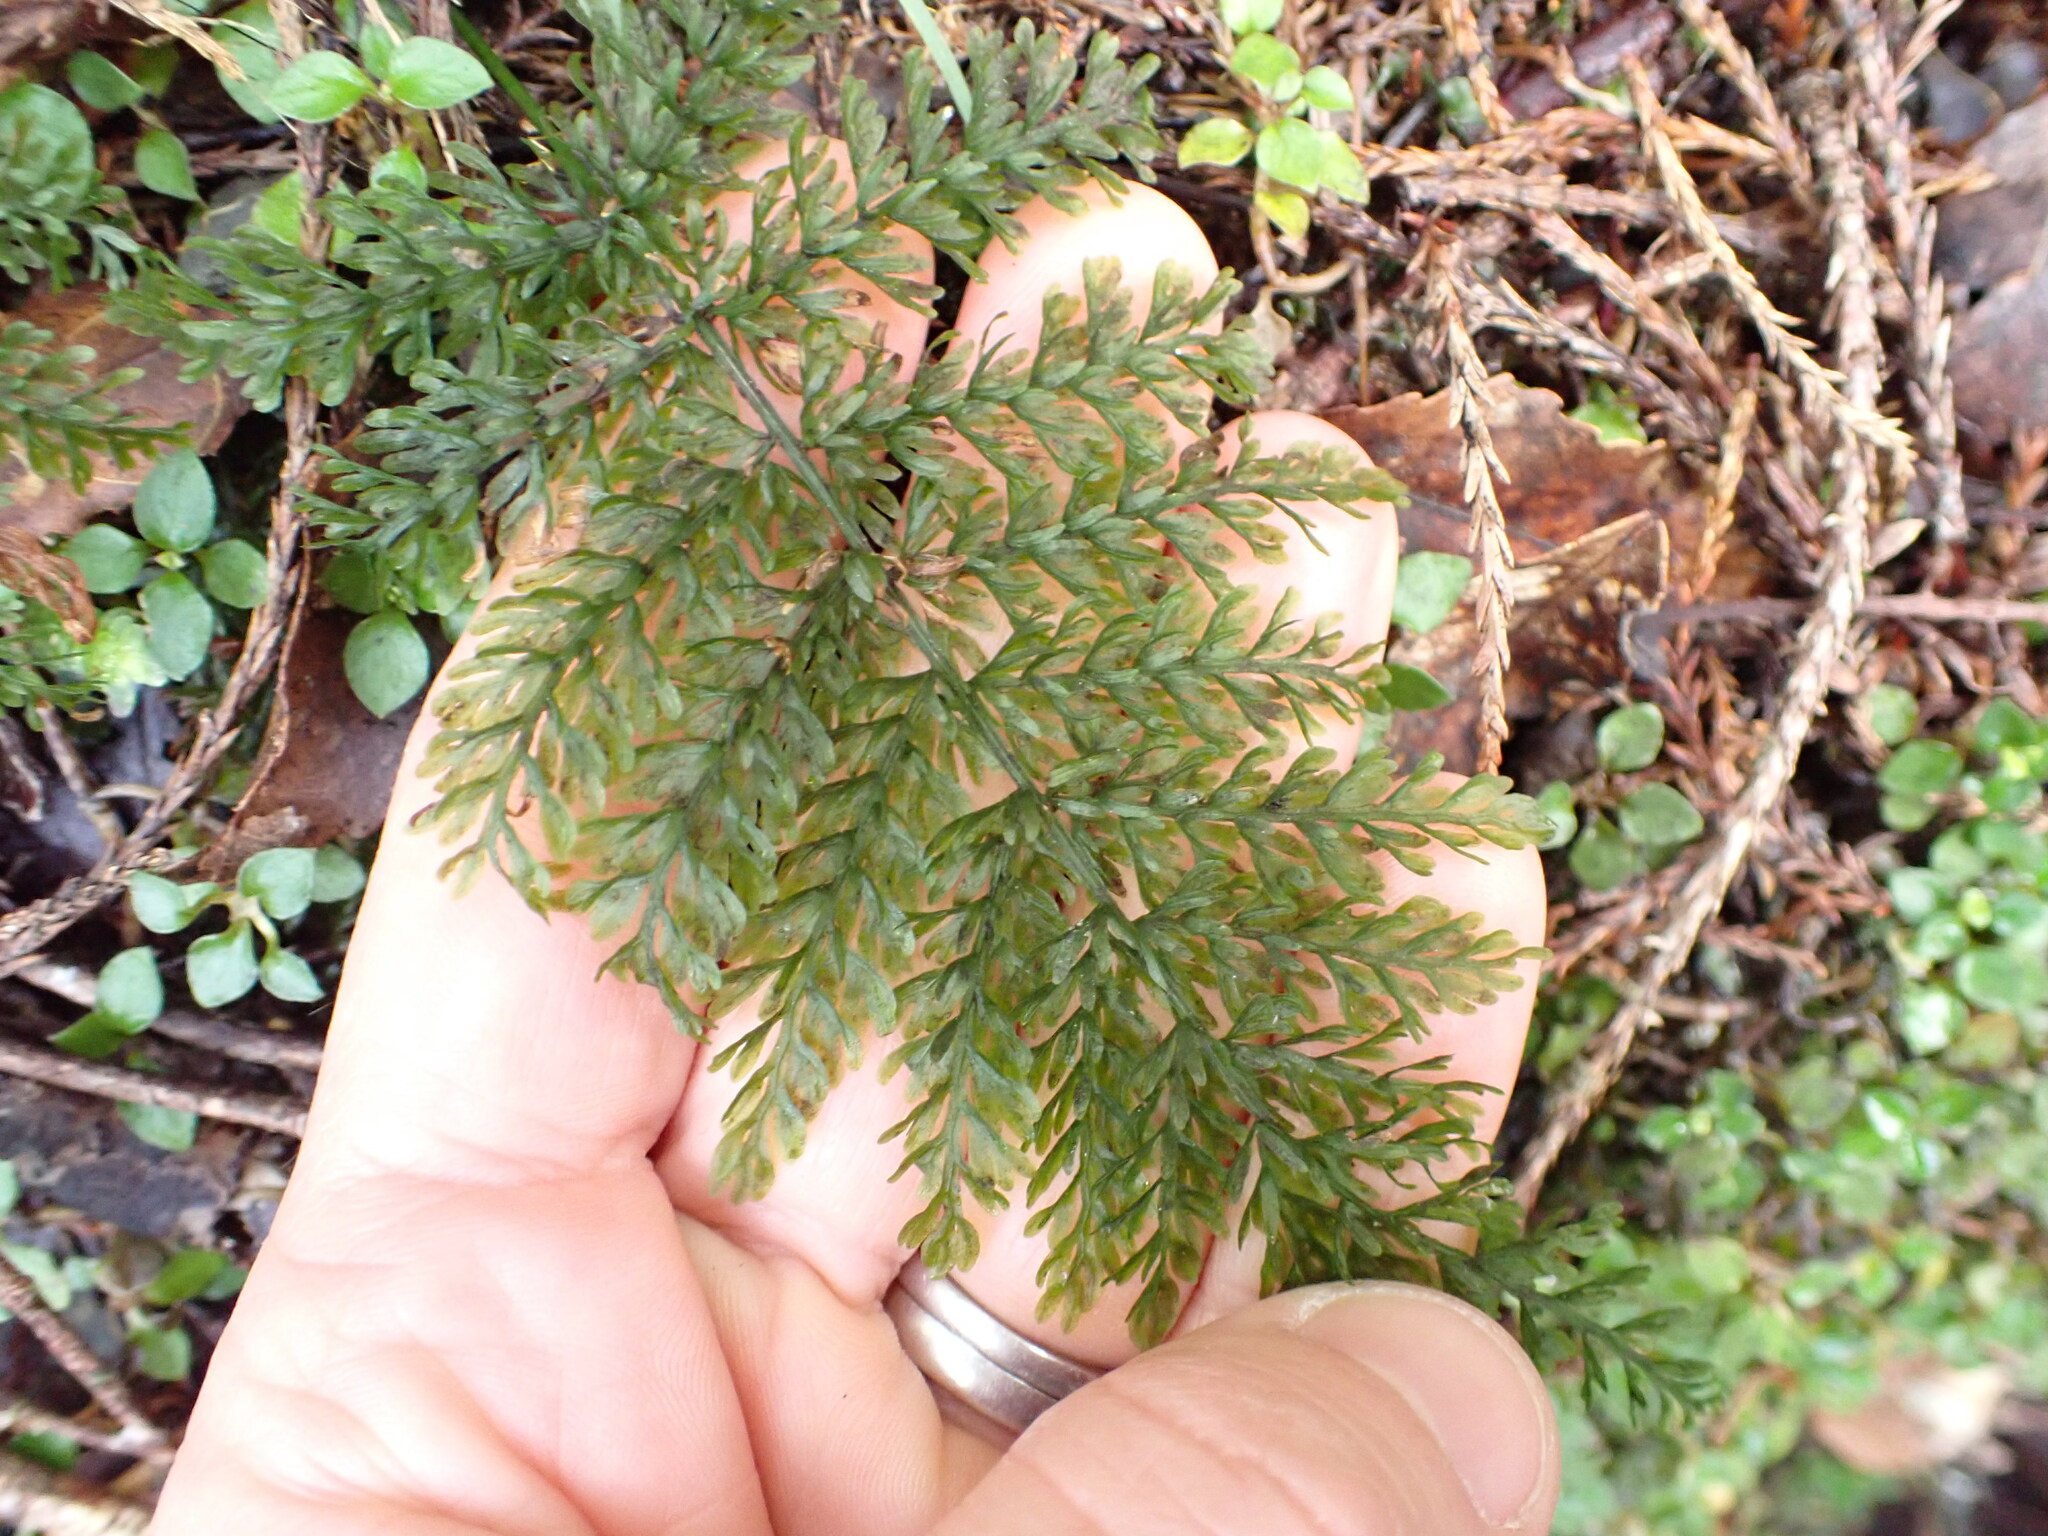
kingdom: Plantae
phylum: Tracheophyta
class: Polypodiopsida
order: Osmundales
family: Osmundaceae
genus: Leptopteris
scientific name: Leptopteris hymenophylloides
